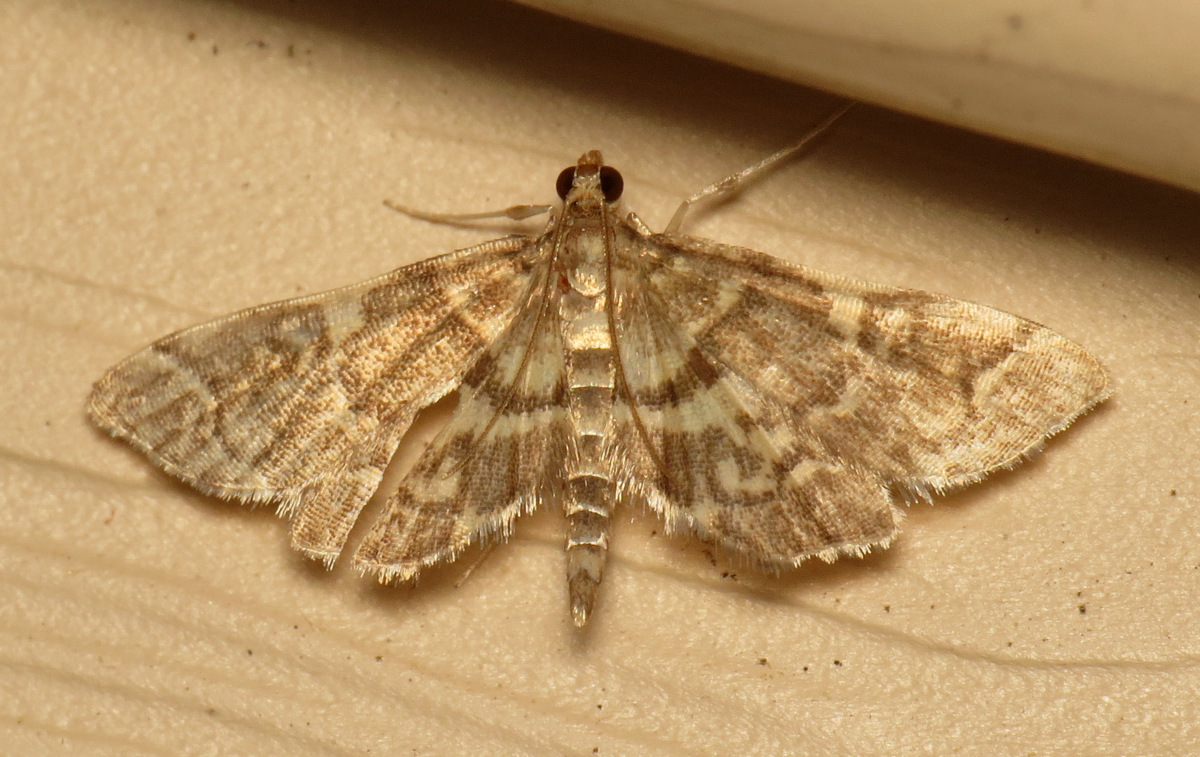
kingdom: Animalia
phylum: Arthropoda
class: Insecta
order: Lepidoptera
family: Crambidae
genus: Anageshna
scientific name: Anageshna primordialis
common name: Yellow-spotted webworm moth
